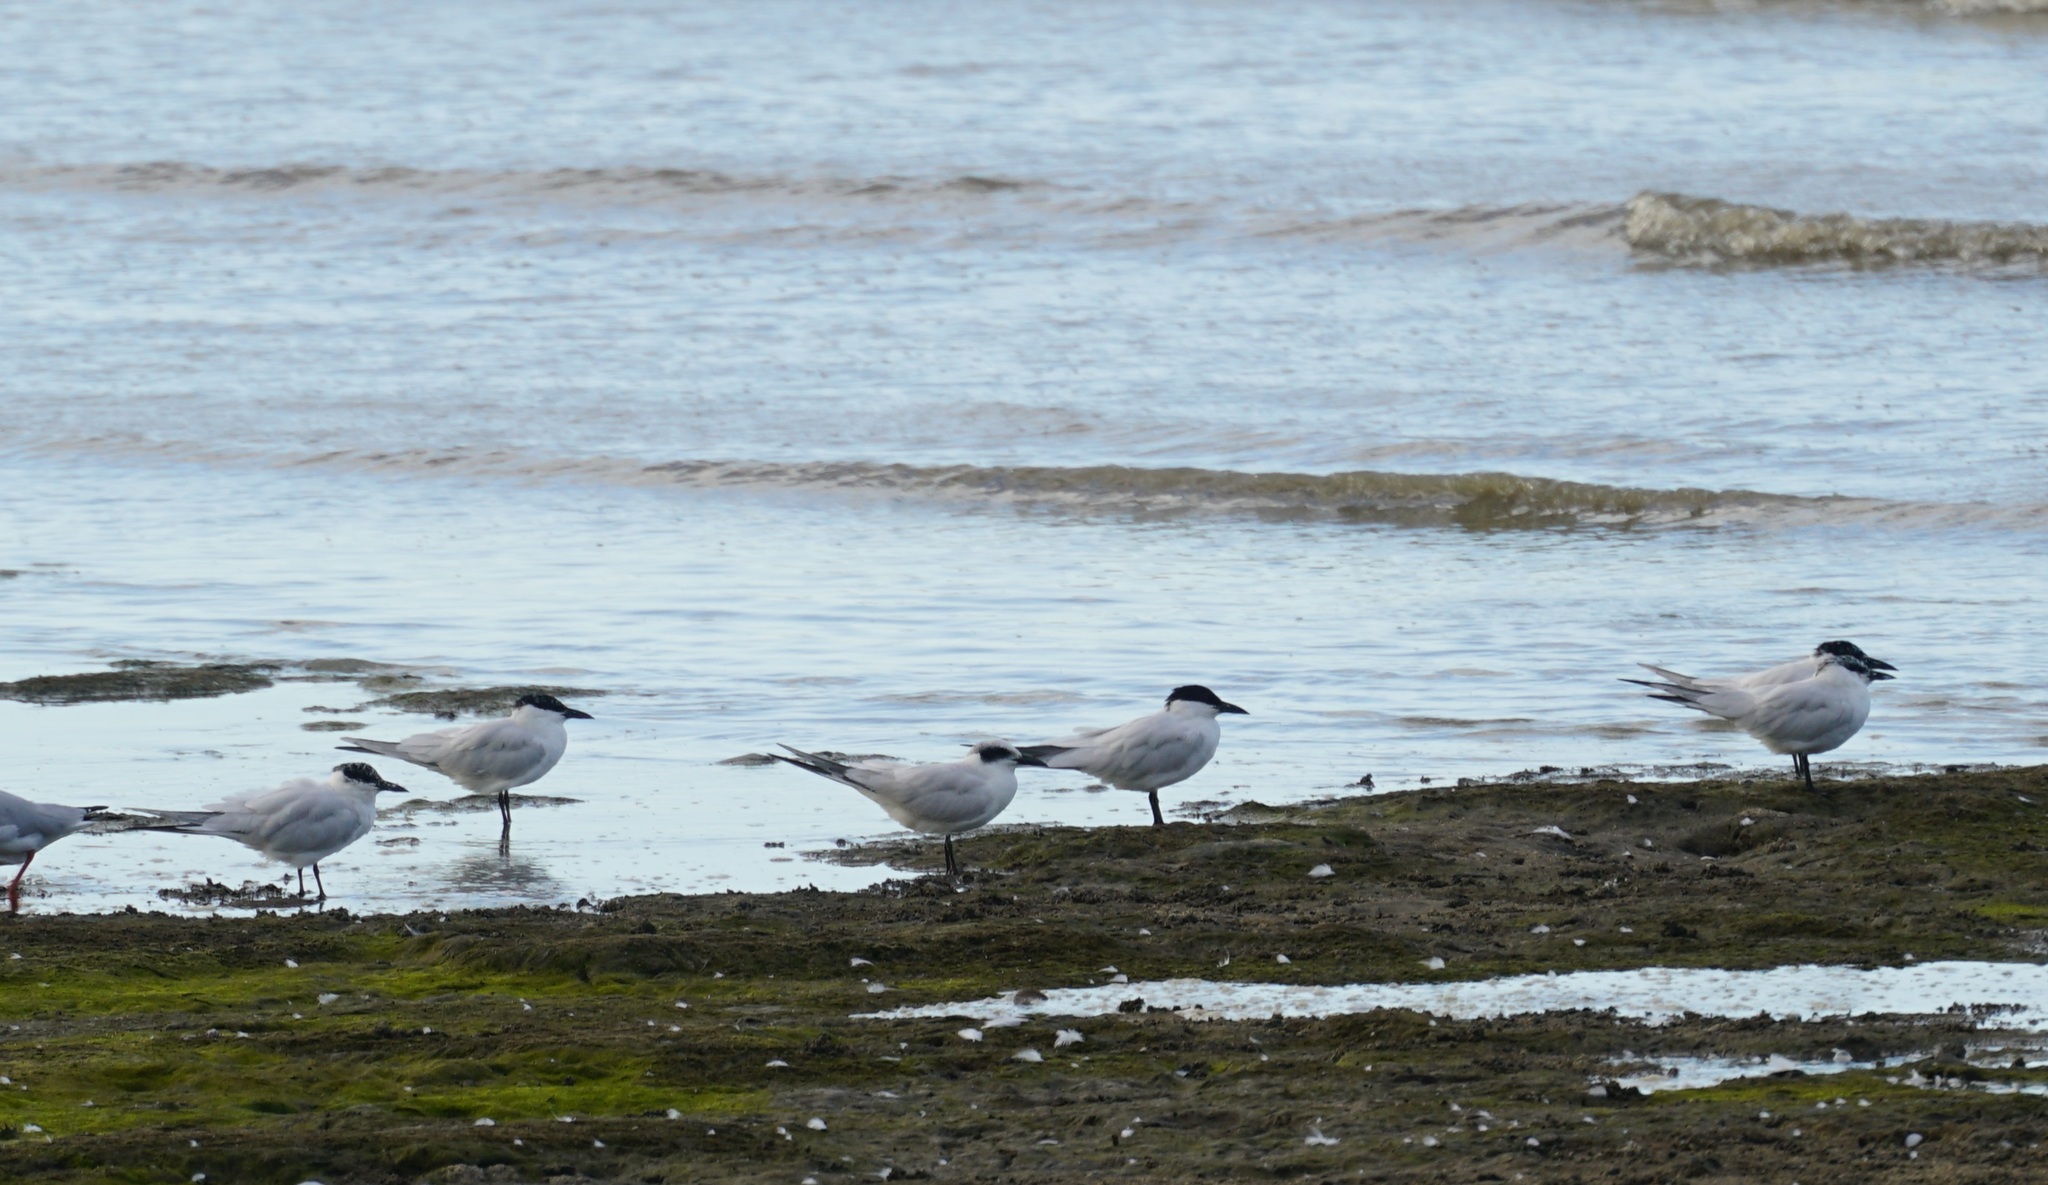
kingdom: Animalia
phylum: Chordata
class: Aves
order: Charadriiformes
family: Laridae
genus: Gelochelidon
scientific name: Gelochelidon macrotarsa
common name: Australian tern
